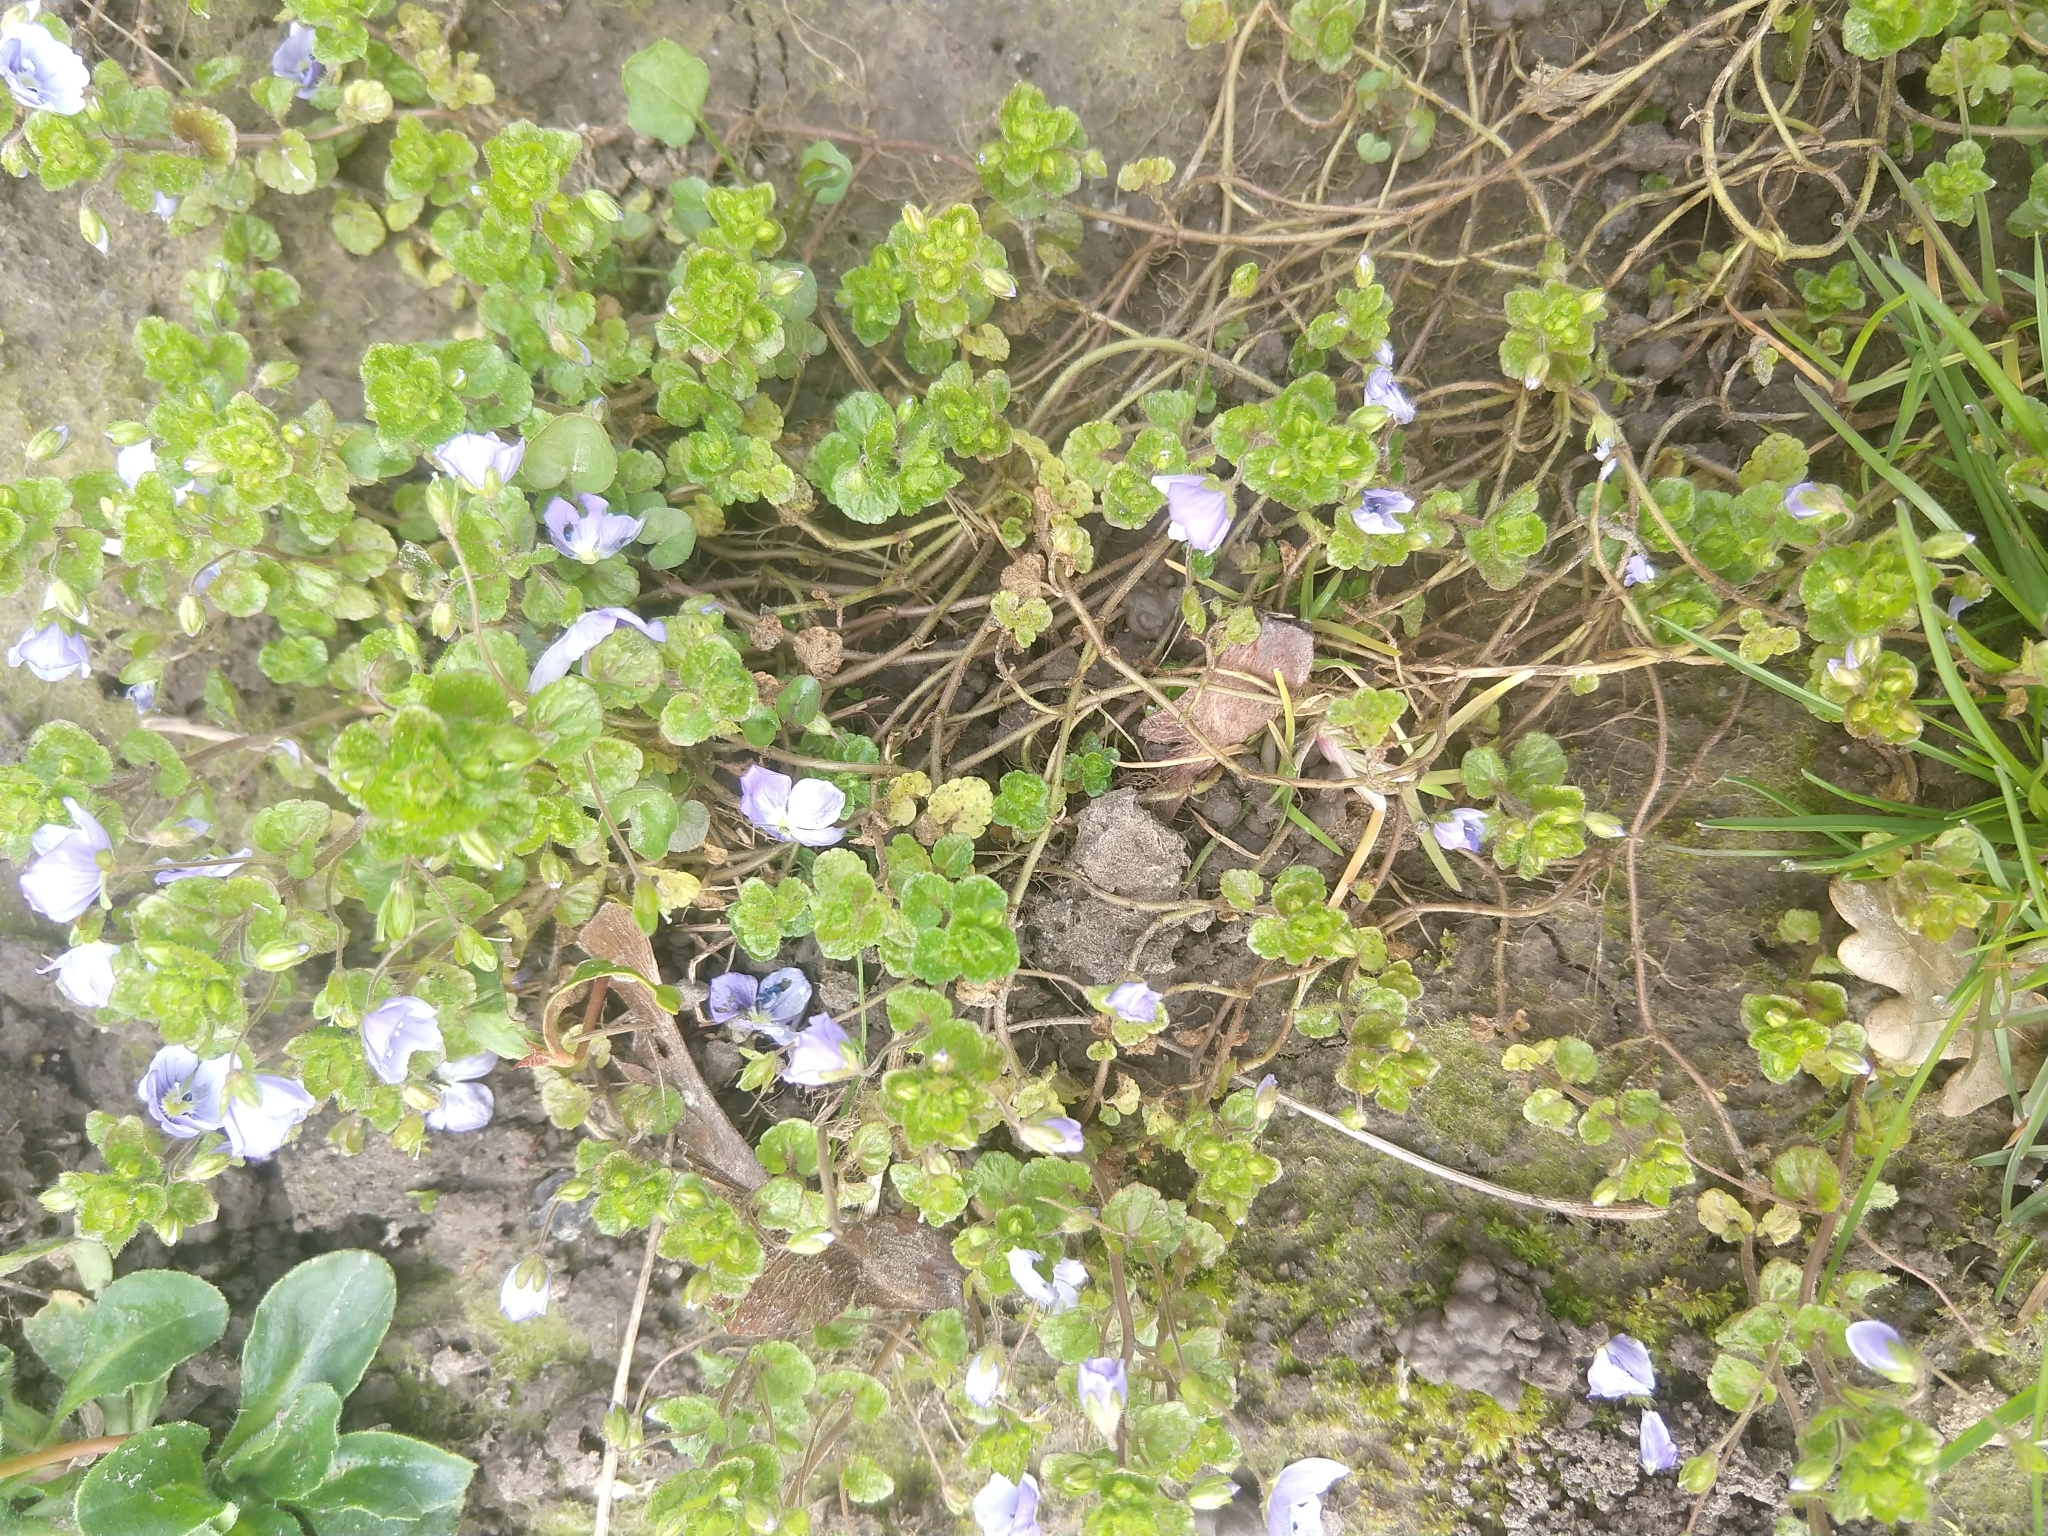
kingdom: Plantae
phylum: Tracheophyta
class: Magnoliopsida
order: Lamiales
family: Plantaginaceae
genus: Veronica
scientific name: Veronica filiformis
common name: Slender speedwell
